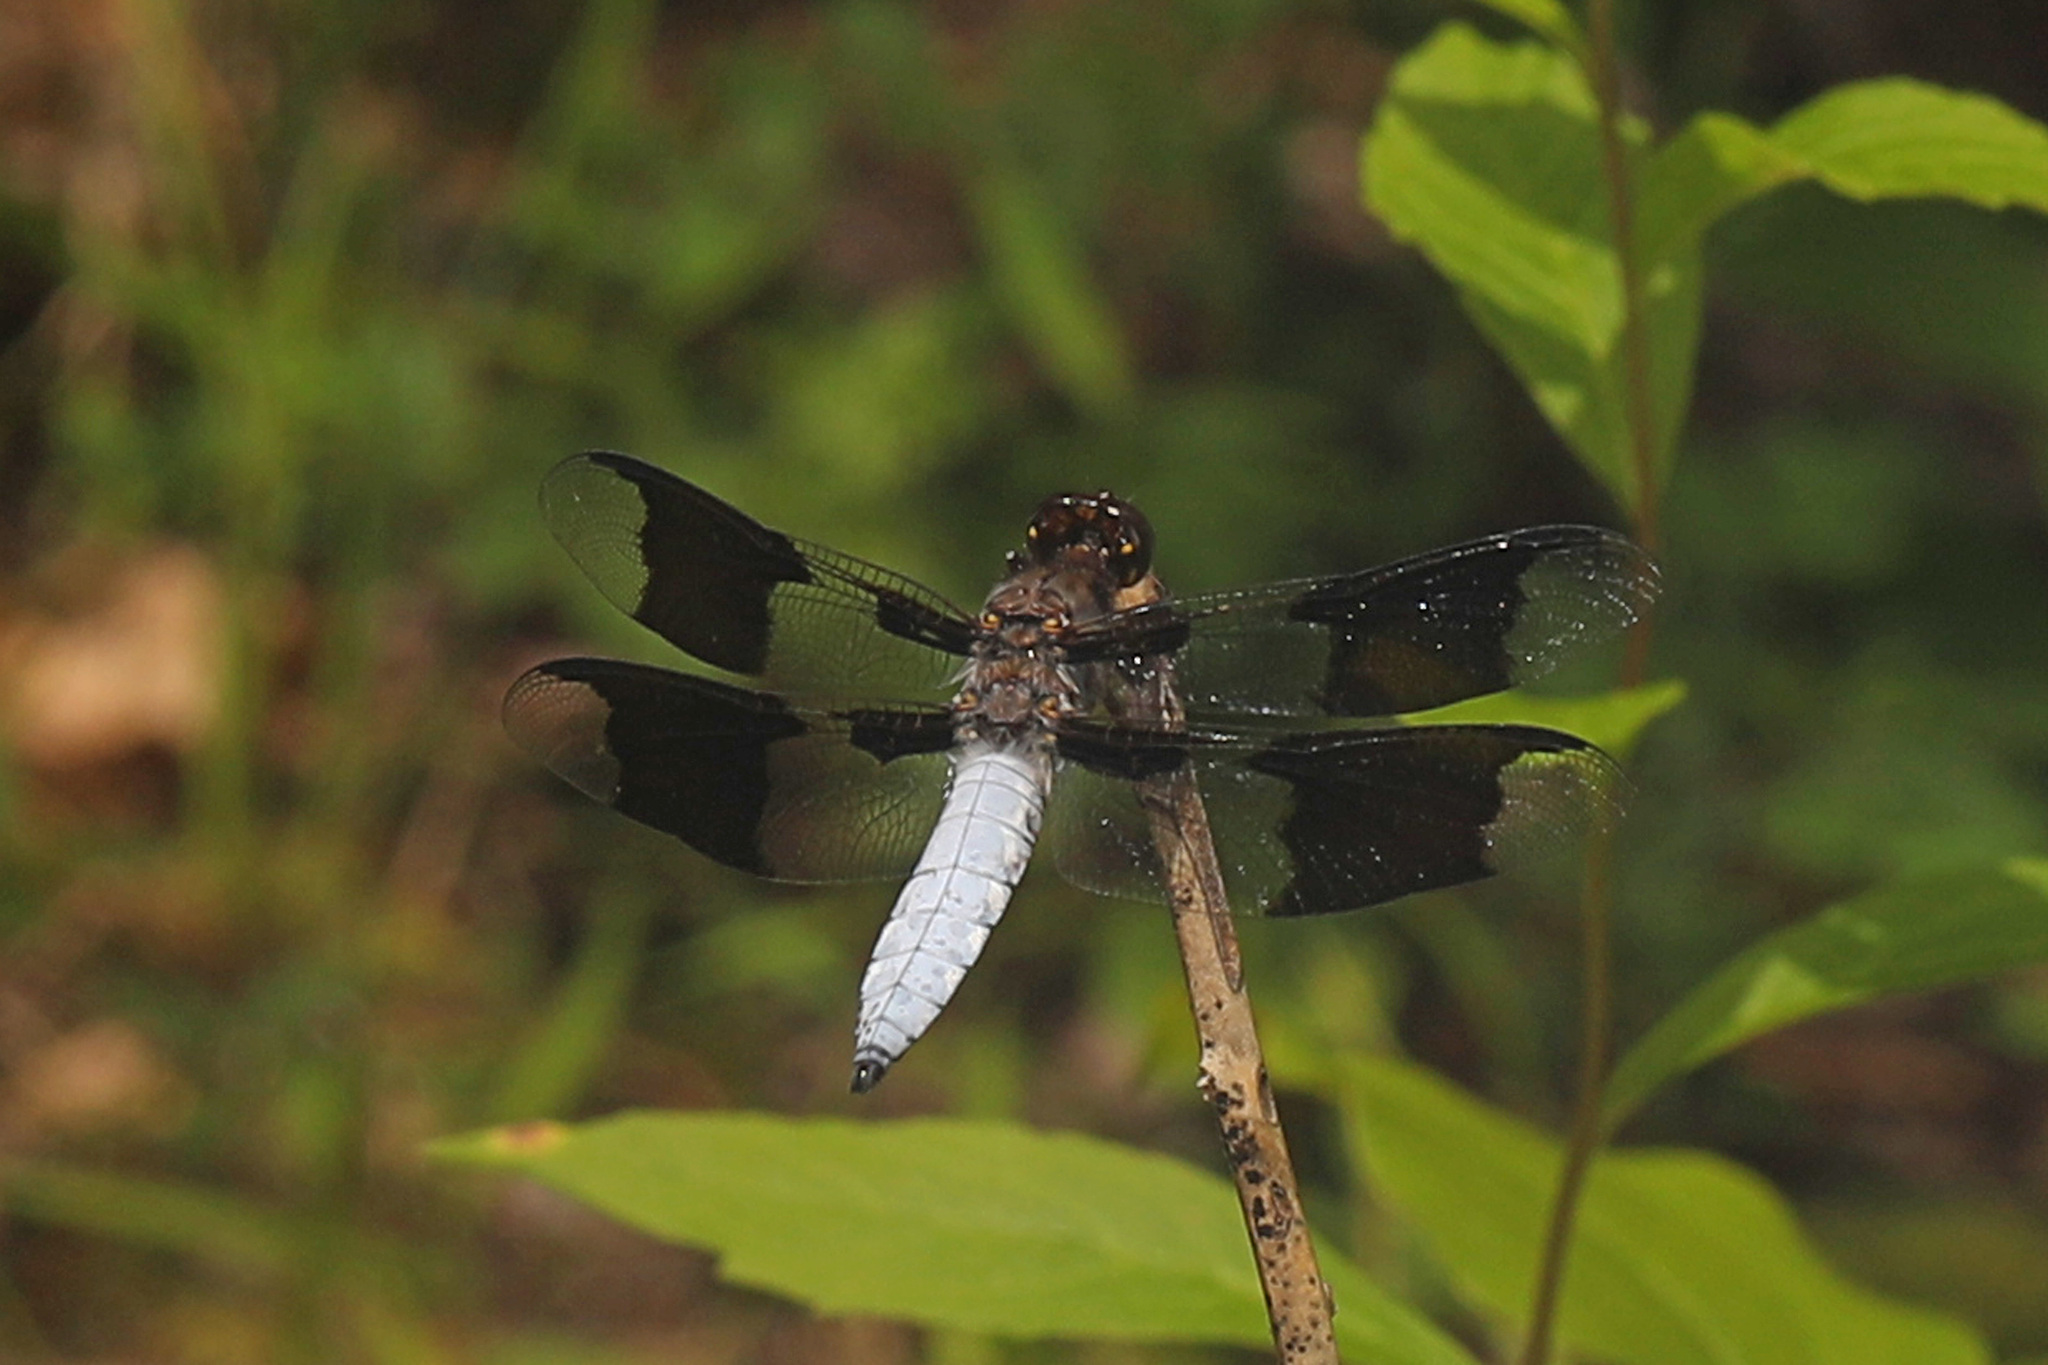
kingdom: Animalia
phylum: Arthropoda
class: Insecta
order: Odonata
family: Libellulidae
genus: Plathemis
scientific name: Plathemis lydia
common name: Common whitetail
